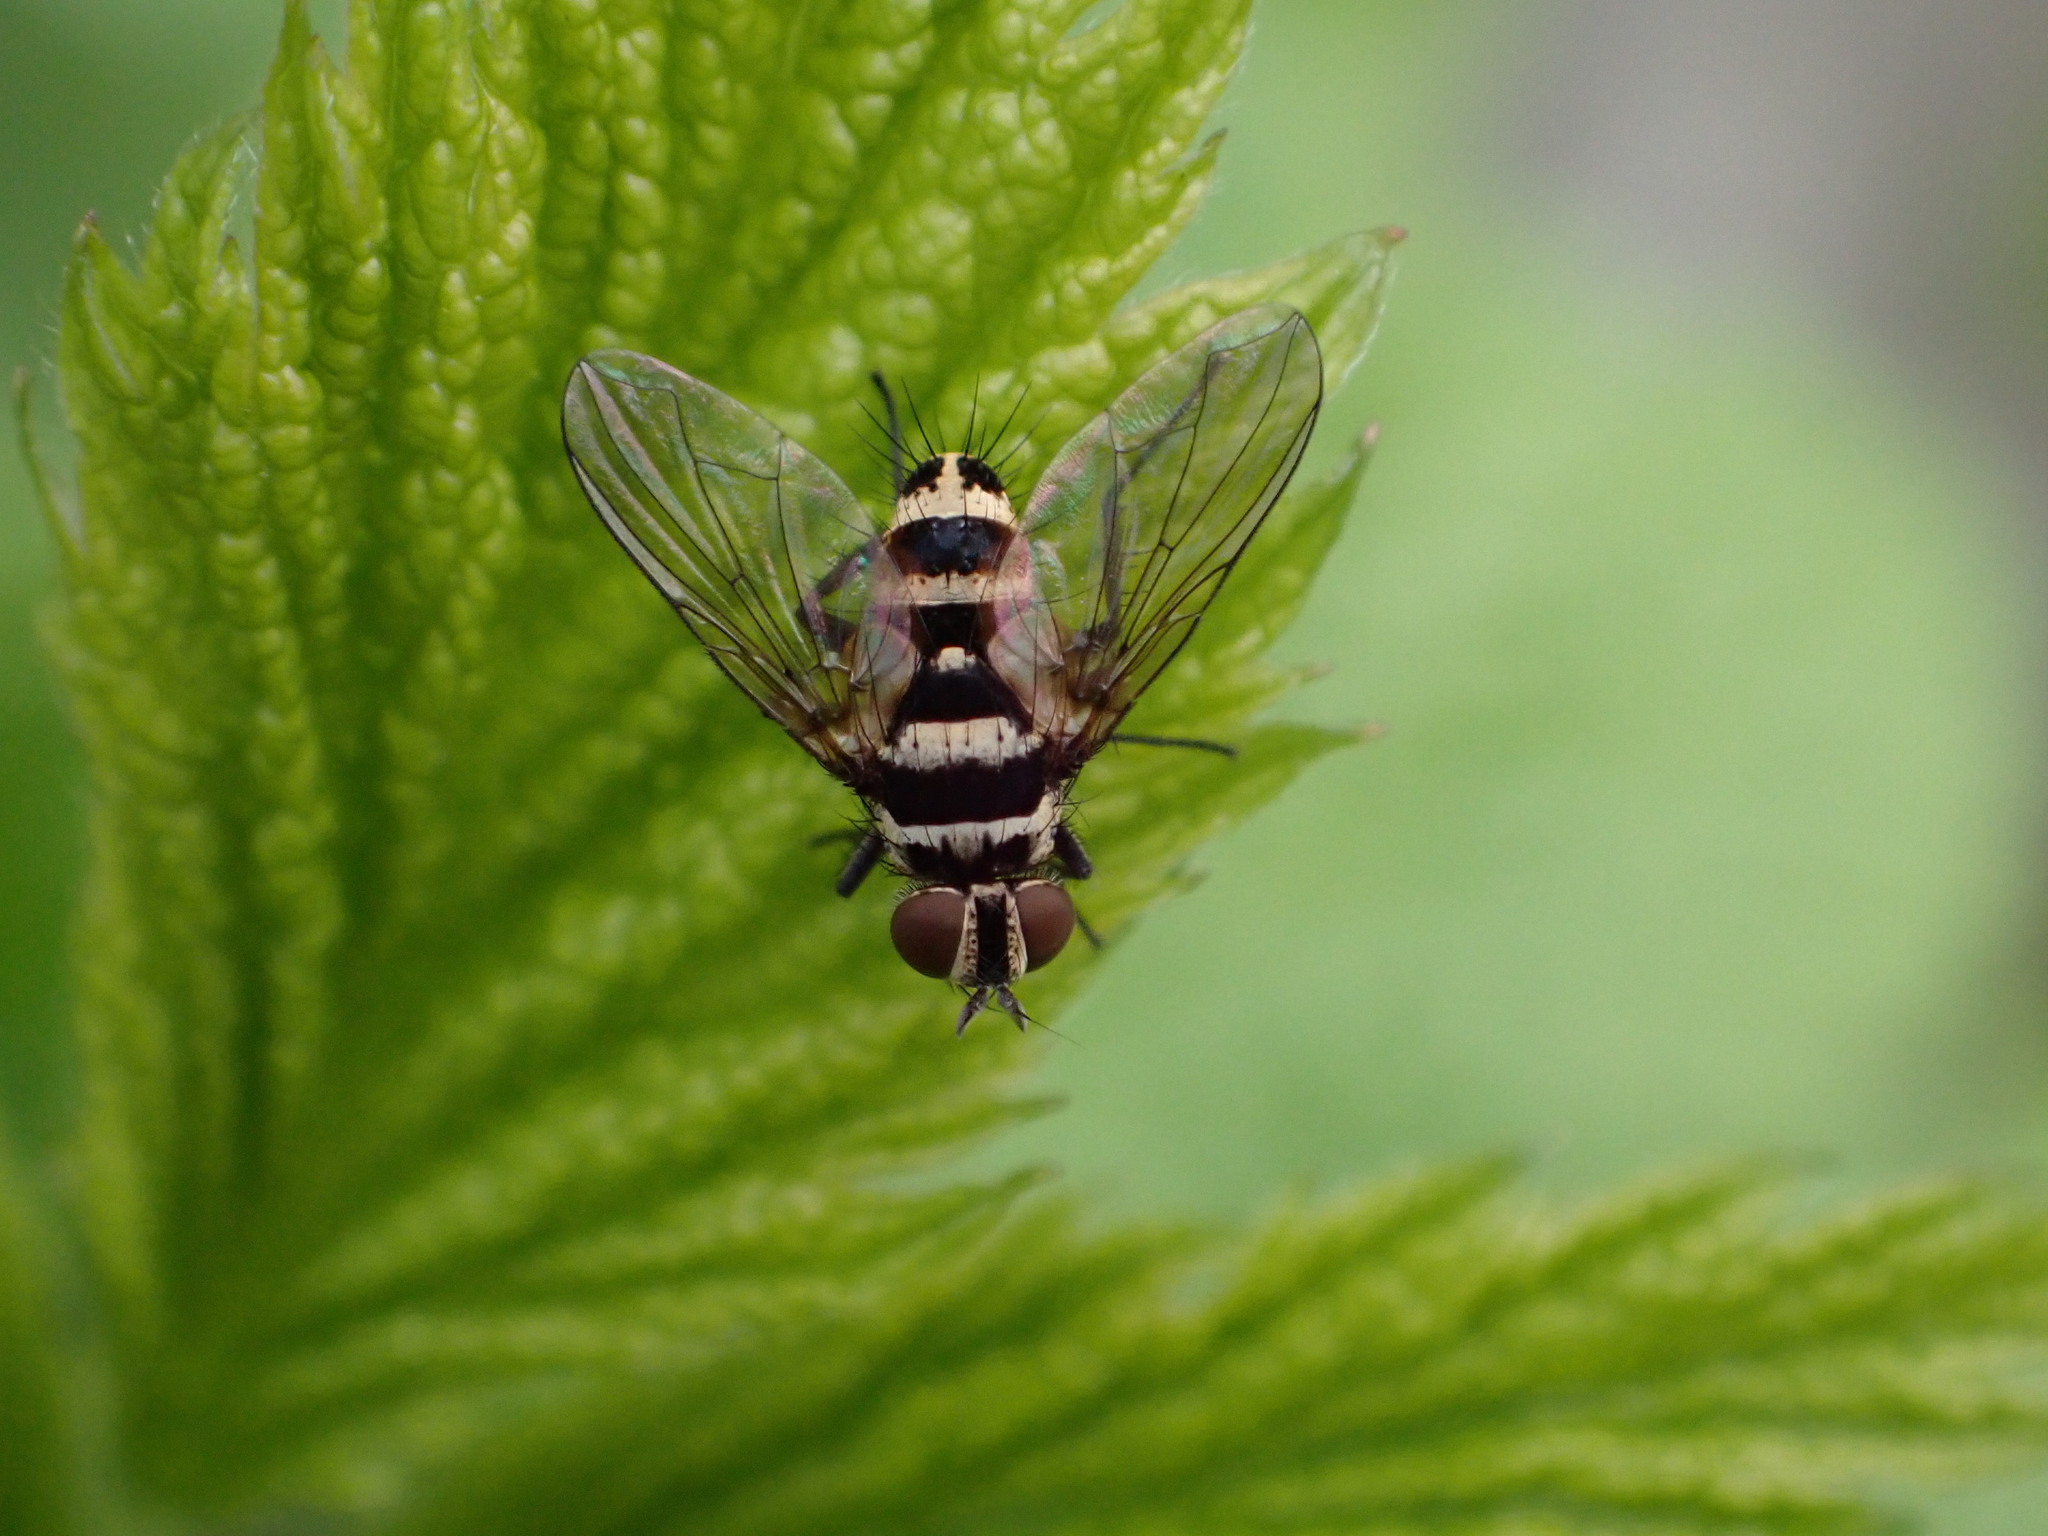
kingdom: Animalia
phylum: Arthropoda
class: Insecta
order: Diptera
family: Tachinidae
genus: Trigonospila
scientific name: Trigonospila brevifacies
